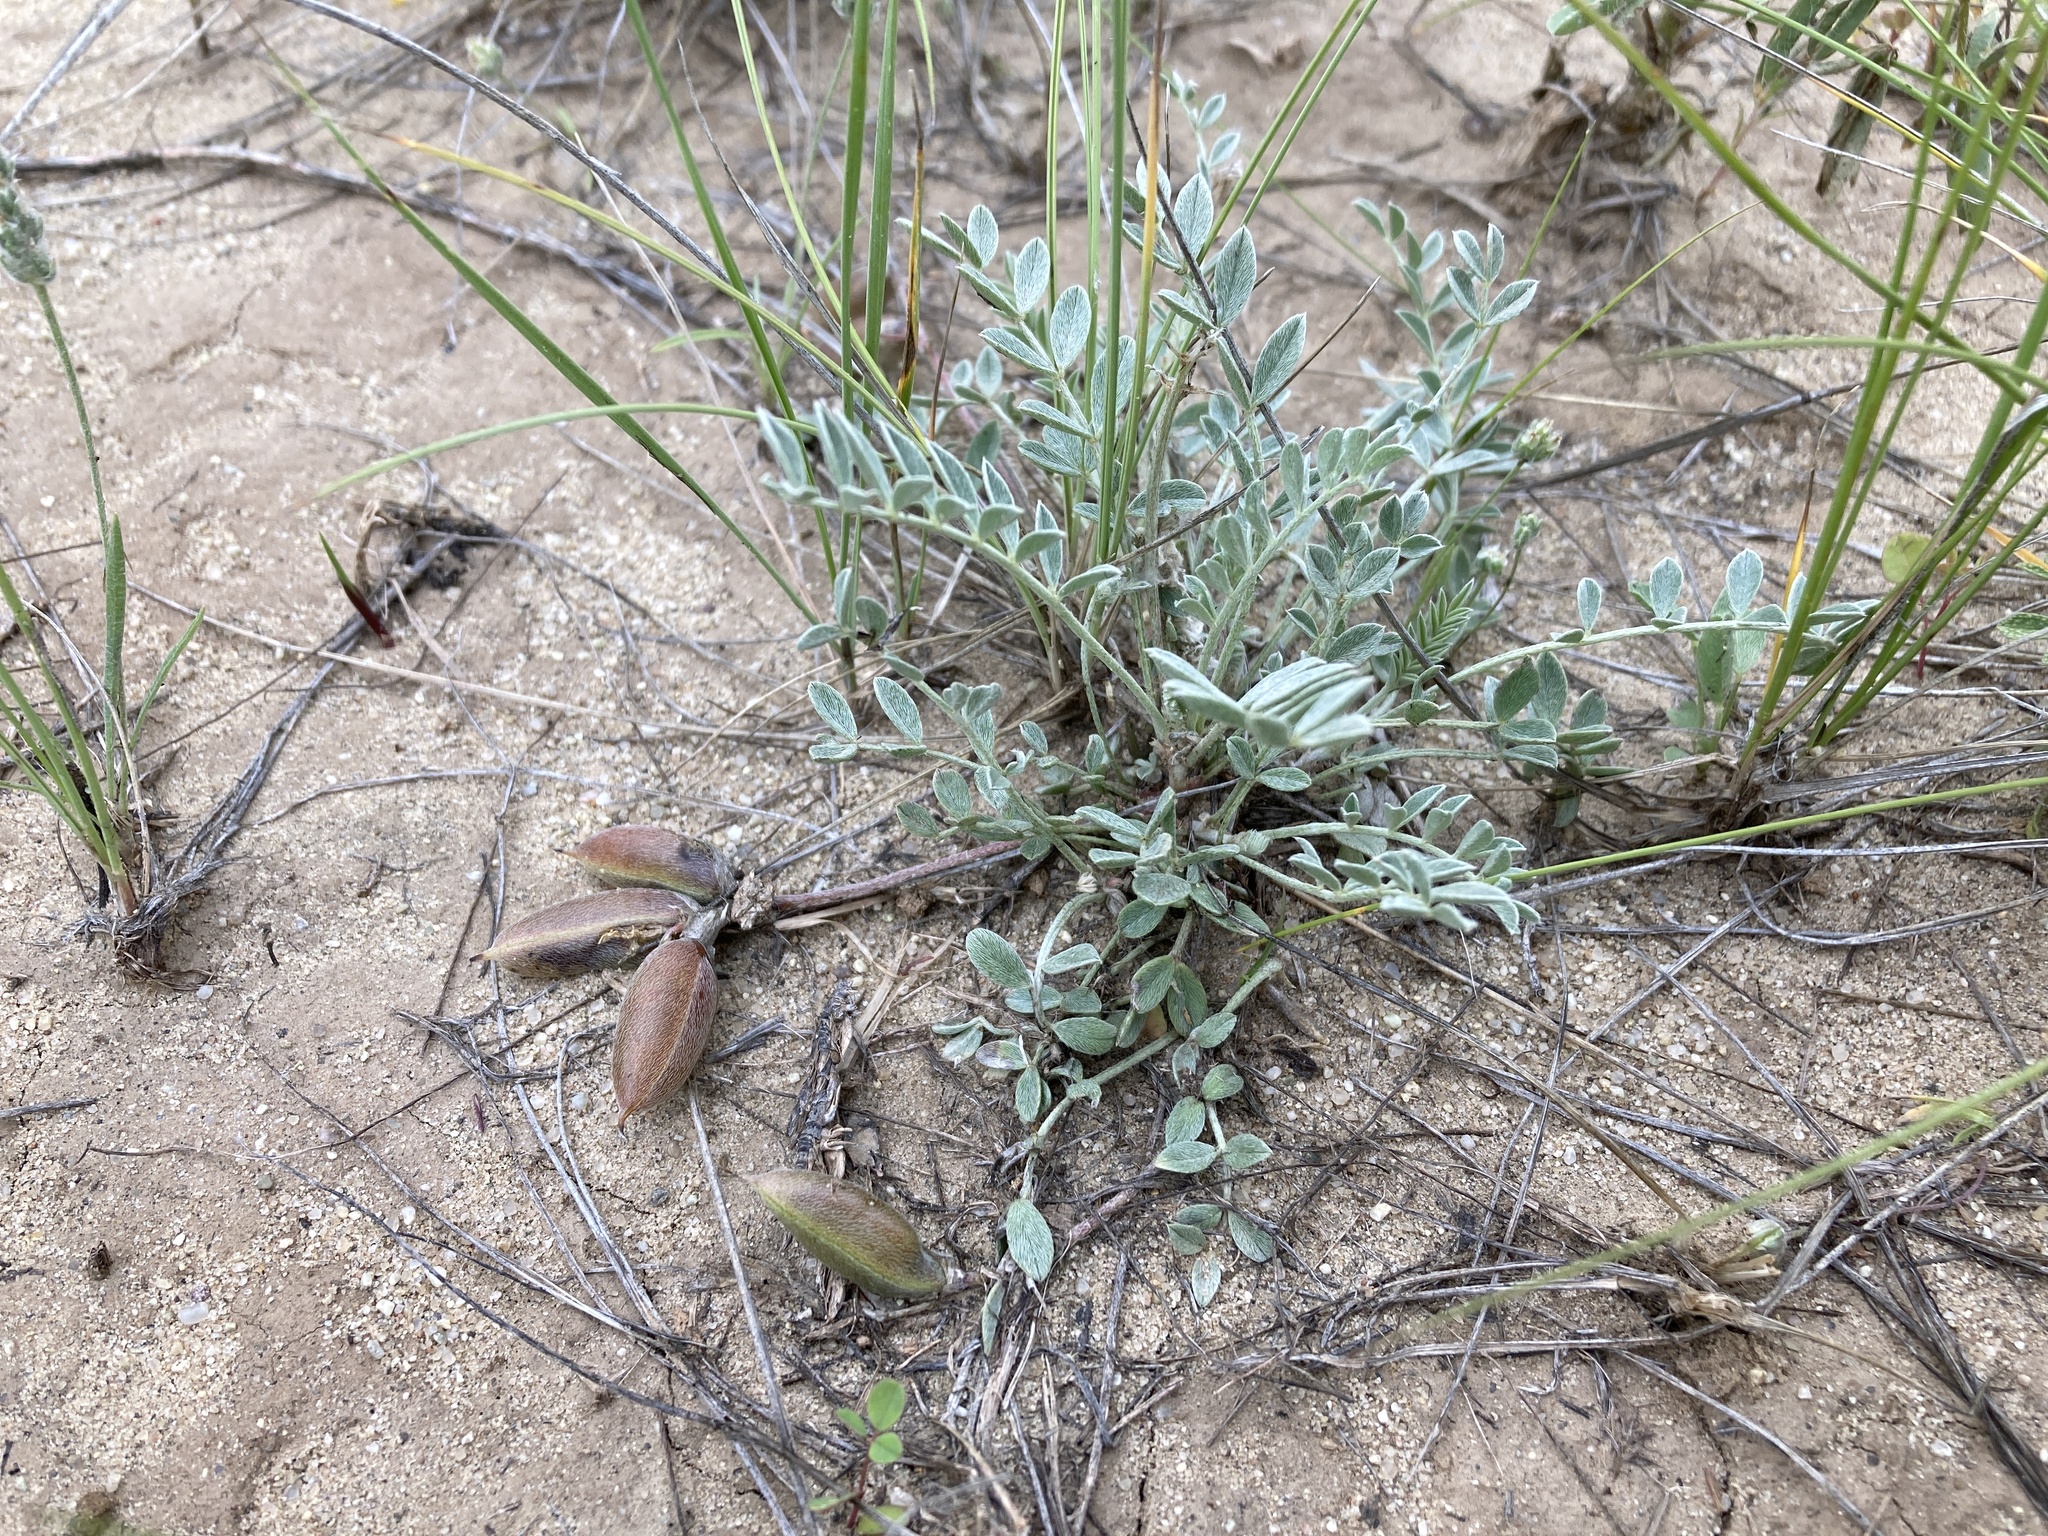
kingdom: Plantae
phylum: Tracheophyta
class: Magnoliopsida
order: Fabales
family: Fabaceae
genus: Astragalus
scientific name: Astragalus missouriensis
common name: Missouri milk-vetch
